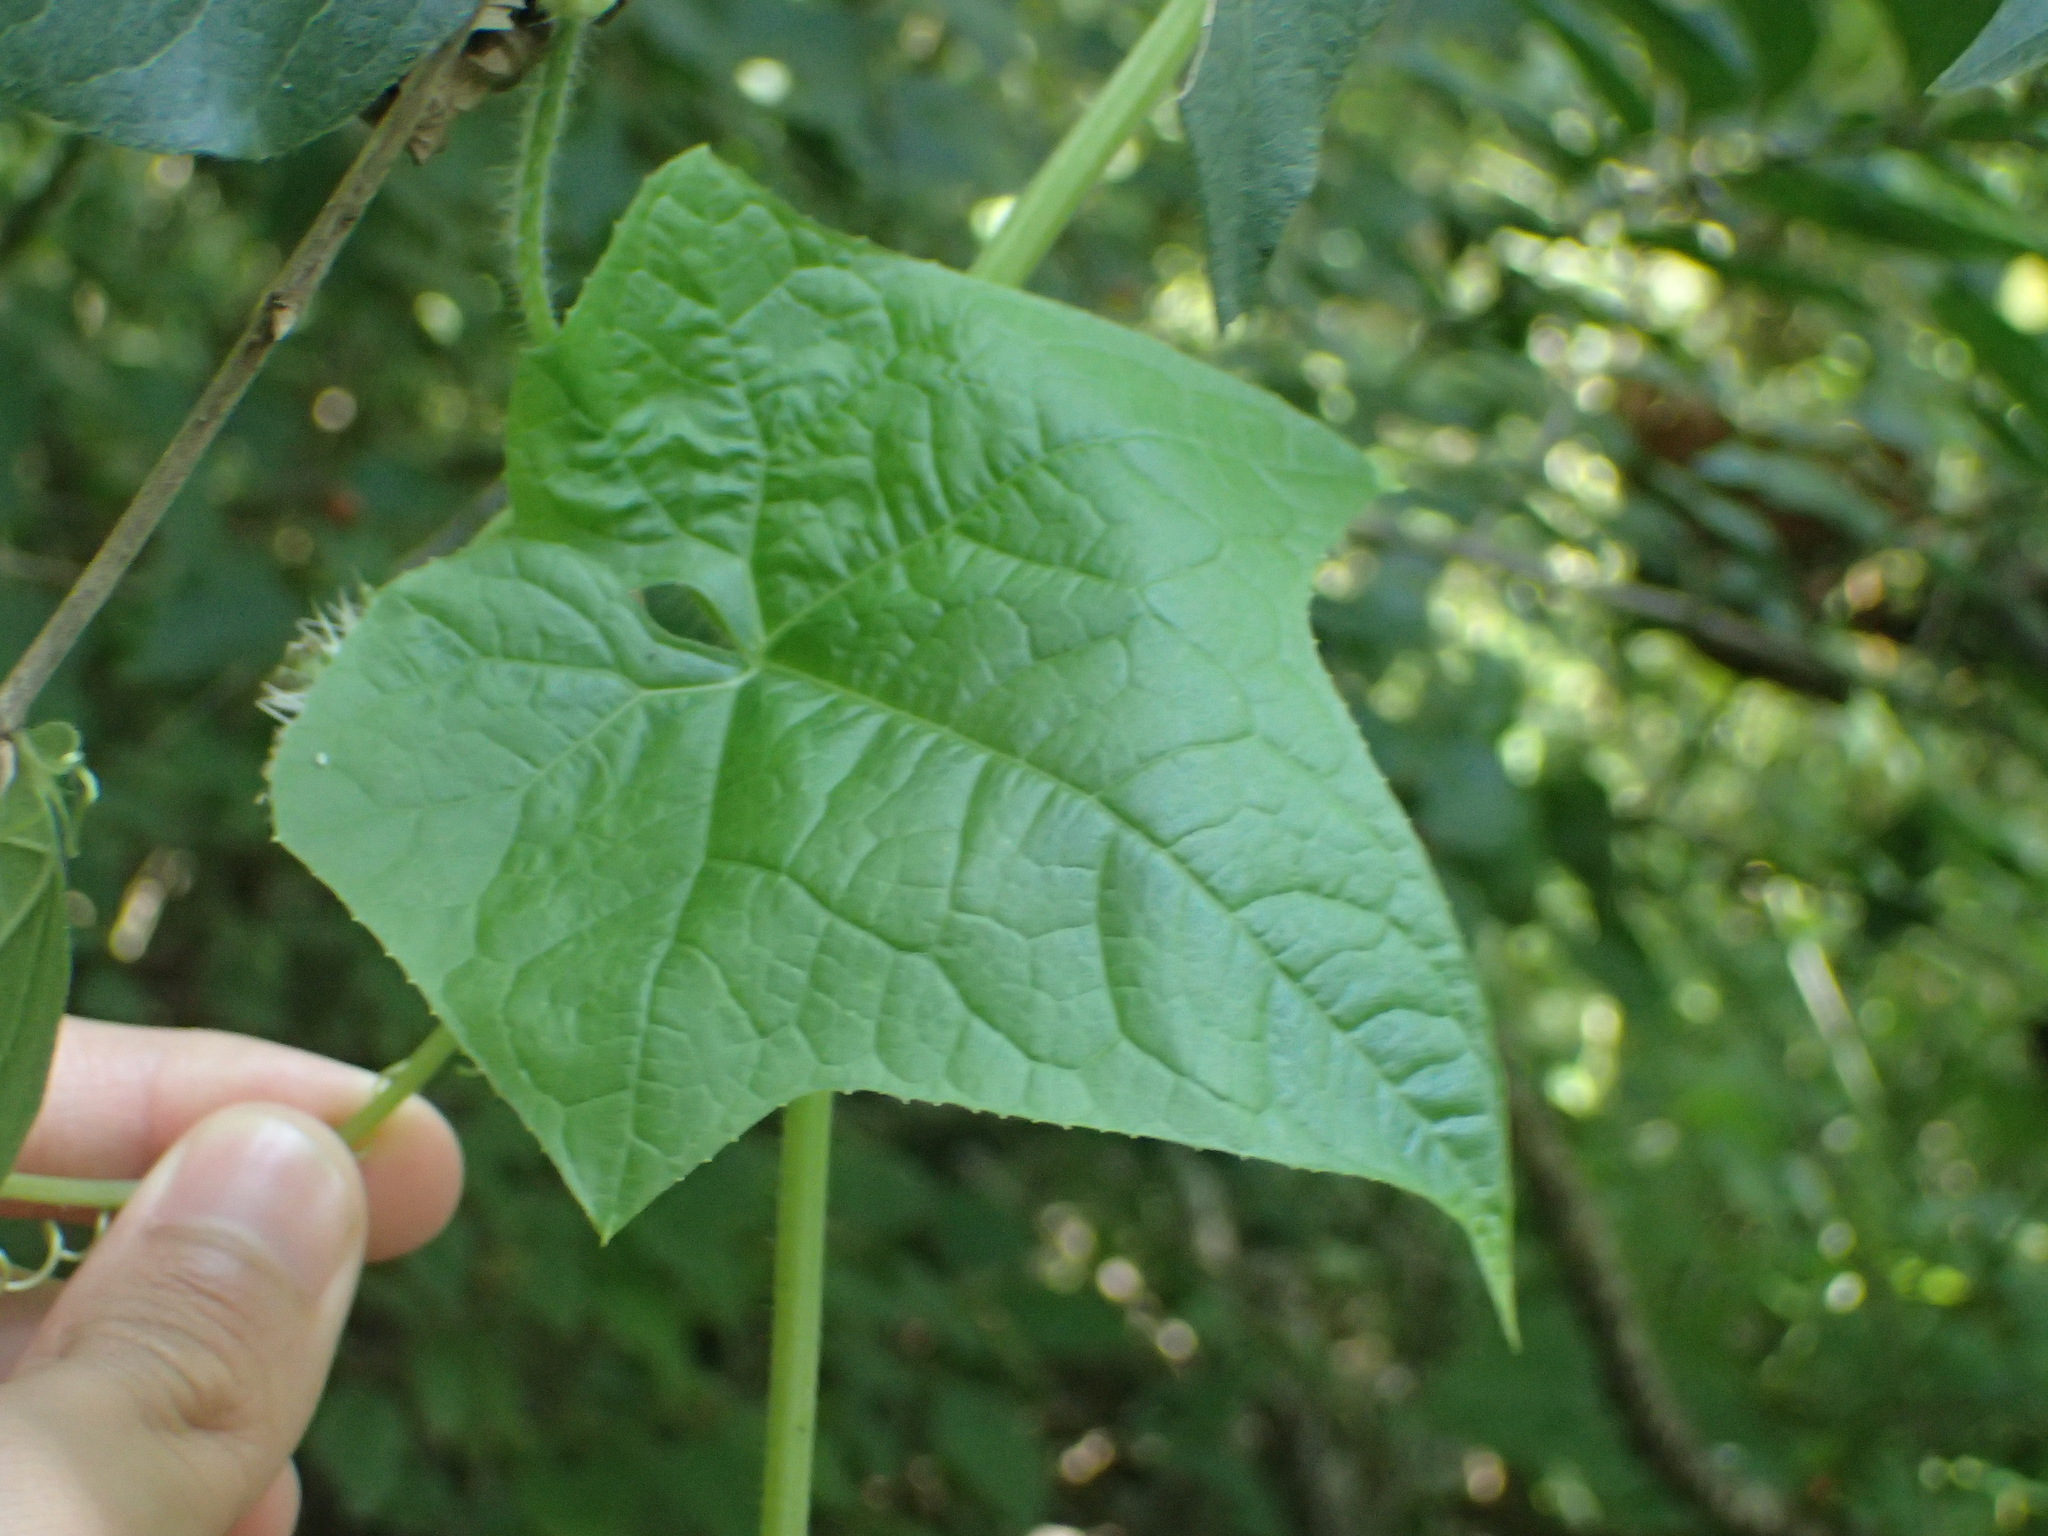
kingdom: Plantae
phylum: Tracheophyta
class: Magnoliopsida
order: Cucurbitales
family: Cucurbitaceae
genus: Sicyos
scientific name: Sicyos angulatus
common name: Angled burr cucumber
